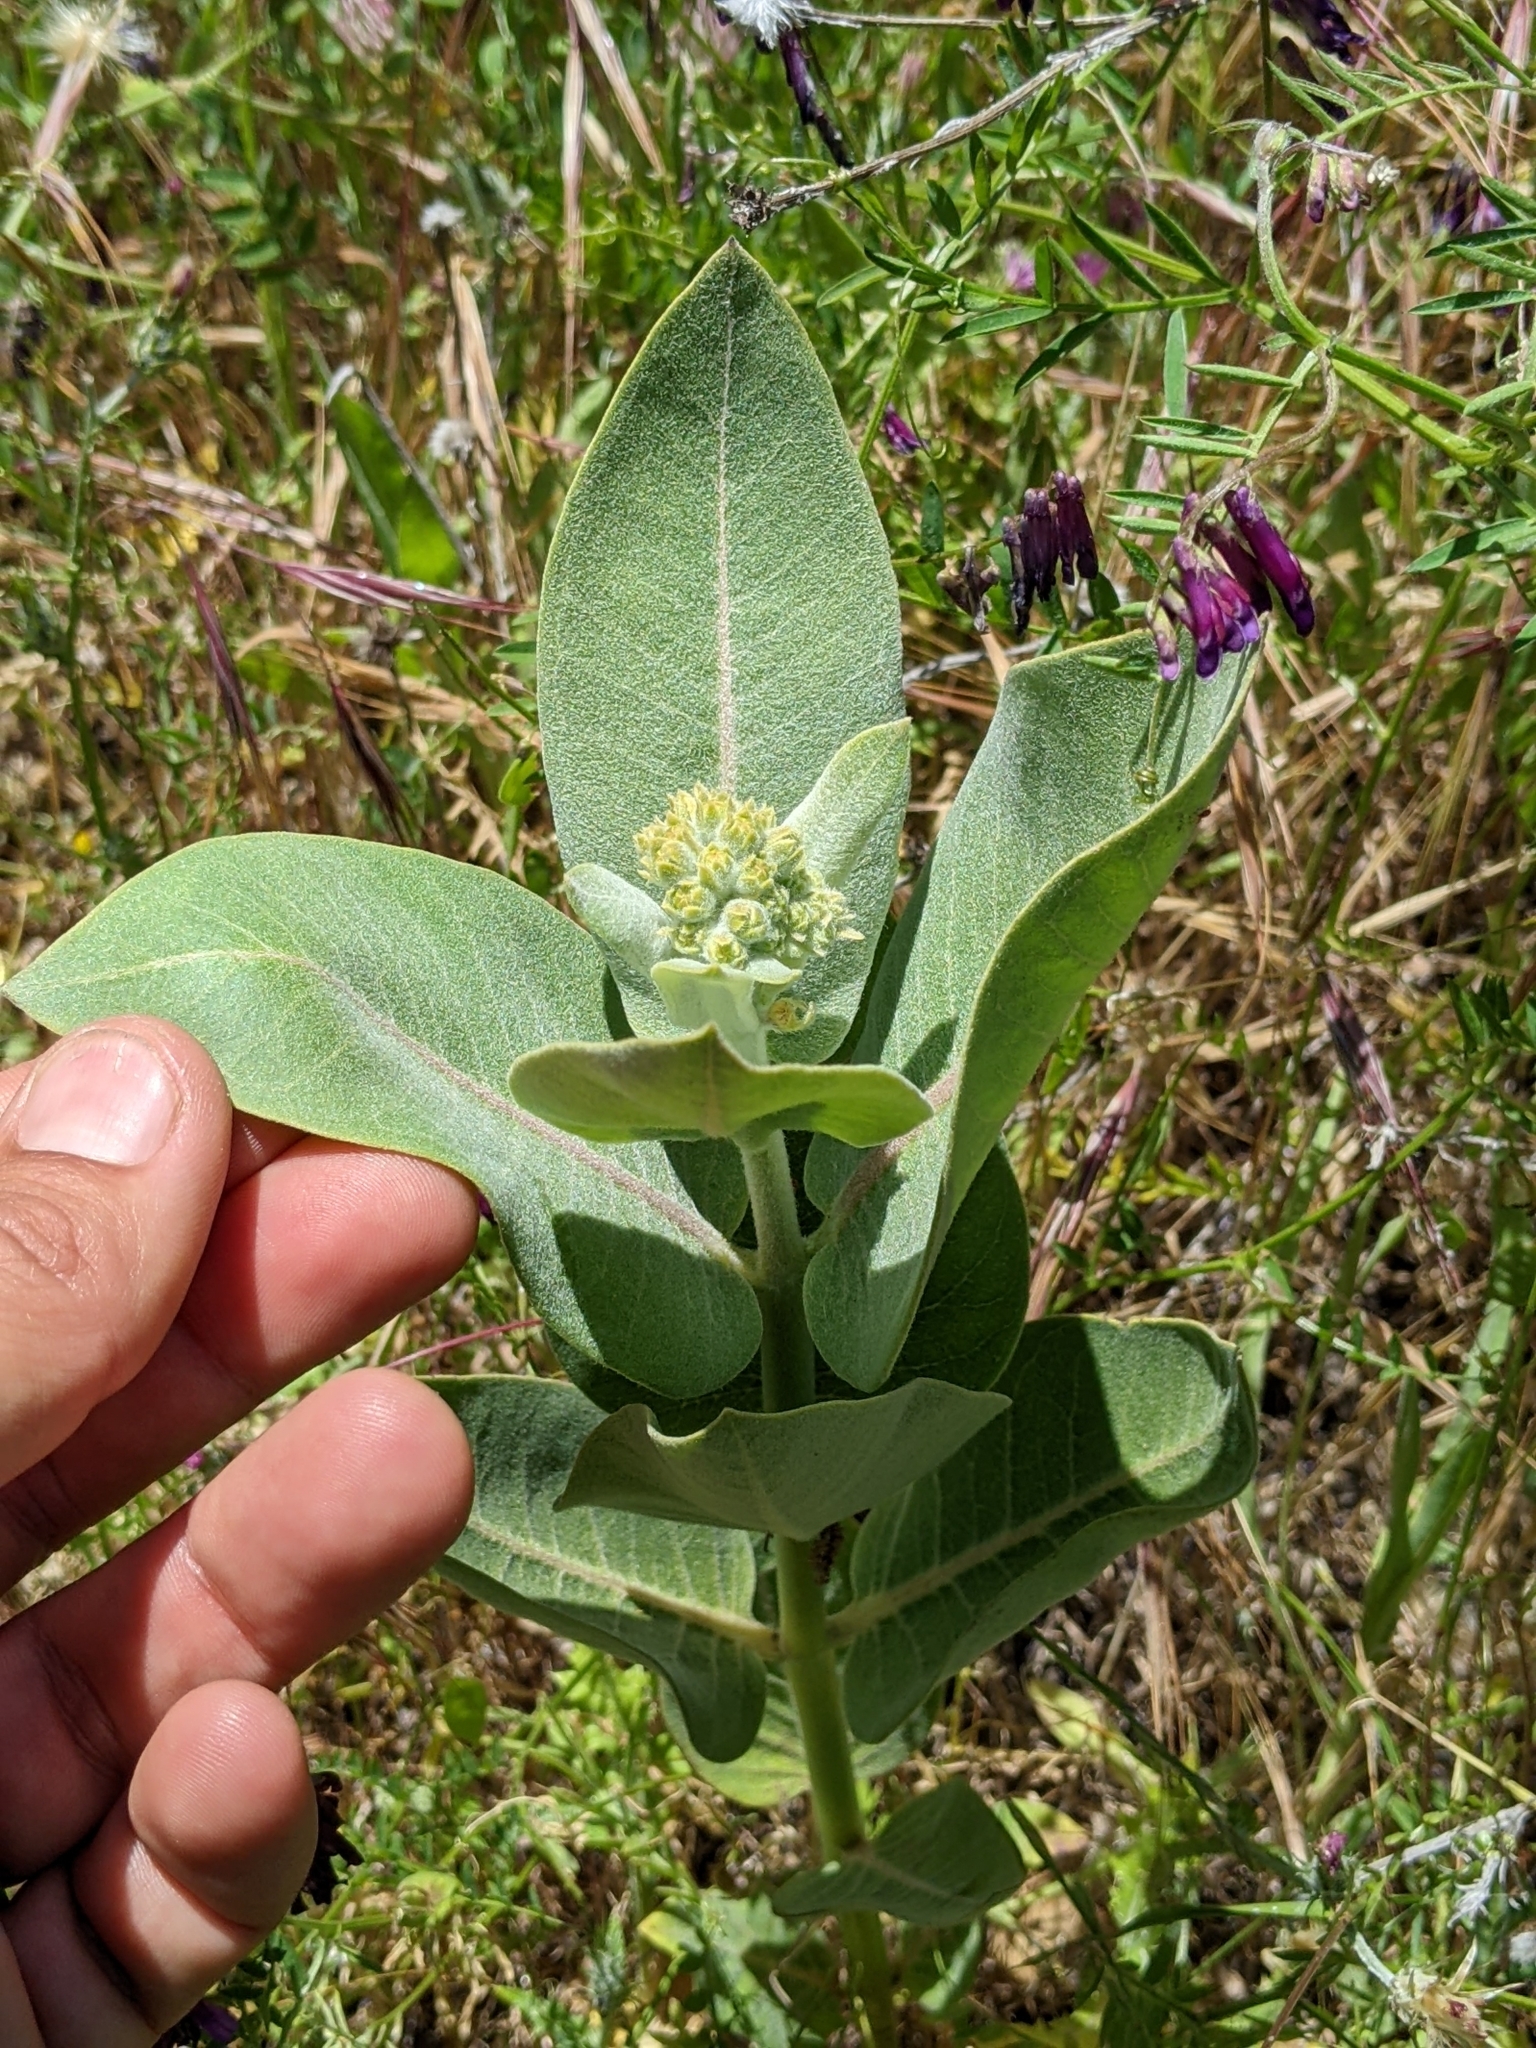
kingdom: Plantae
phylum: Tracheophyta
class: Magnoliopsida
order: Gentianales
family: Apocynaceae
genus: Asclepias
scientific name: Asclepias speciosa
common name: Showy milkweed
